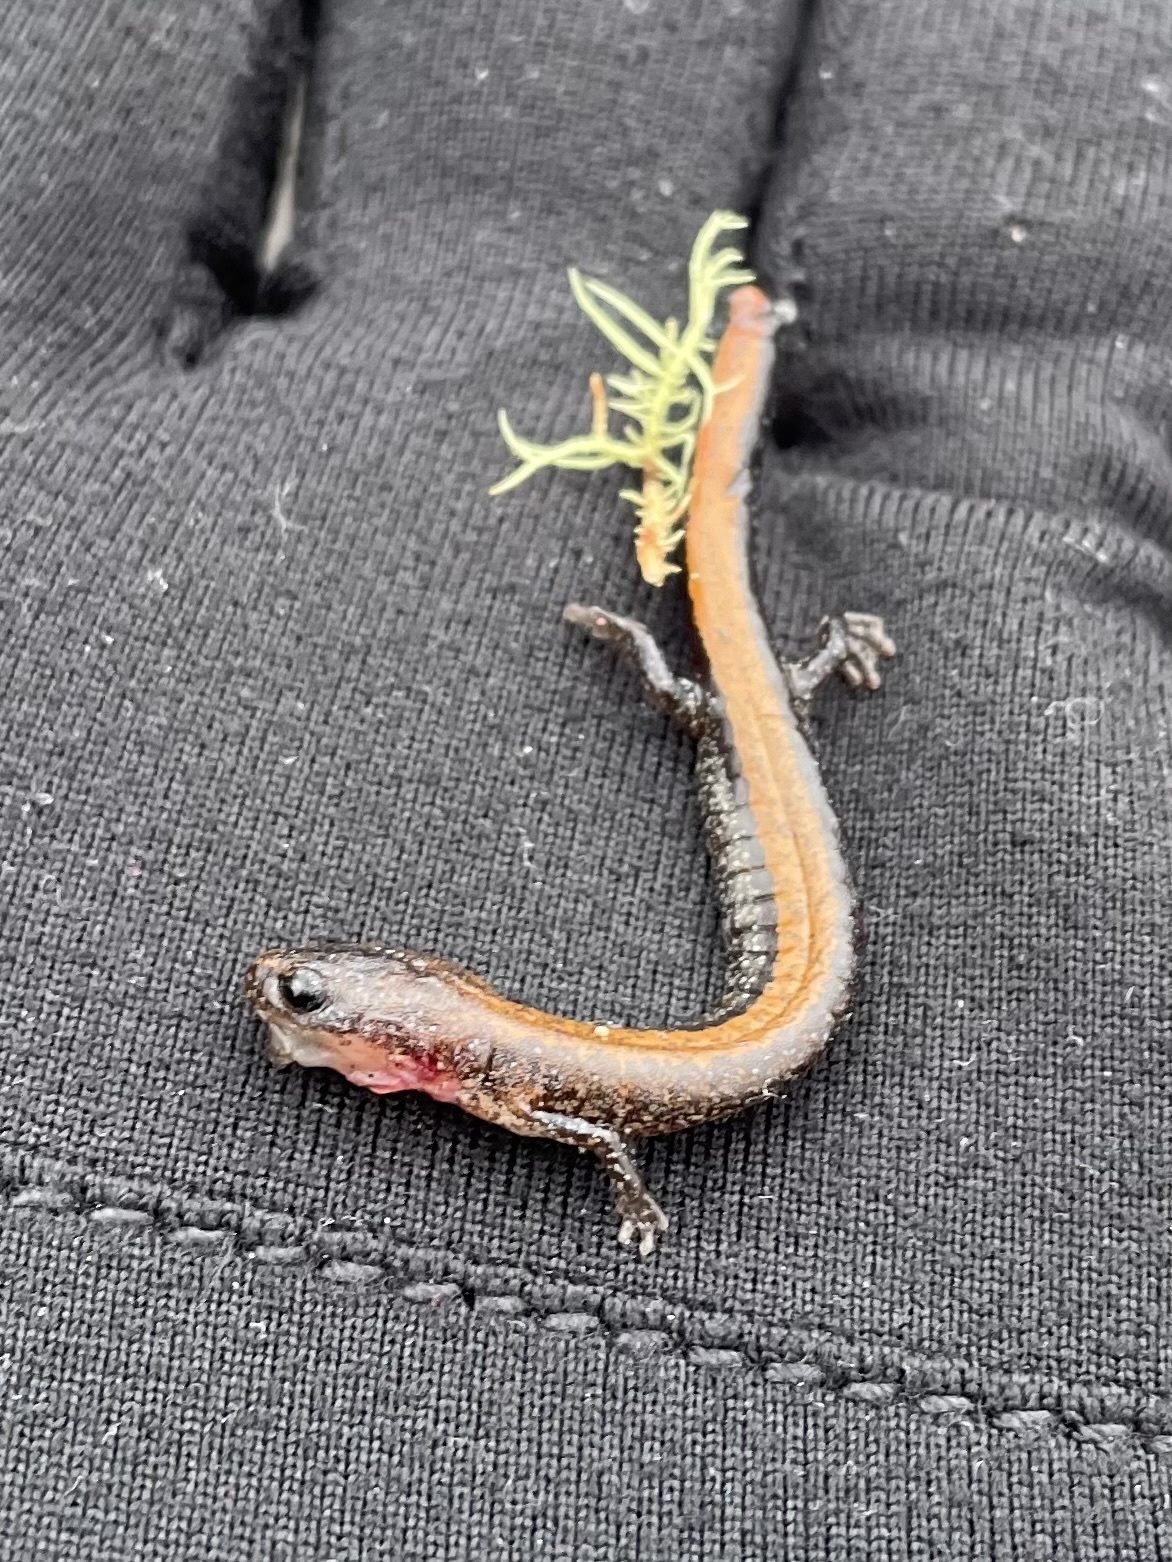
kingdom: Animalia
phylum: Chordata
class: Amphibia
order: Caudata
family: Plethodontidae
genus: Plethodon
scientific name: Plethodon cinereus
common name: Redback salamander
